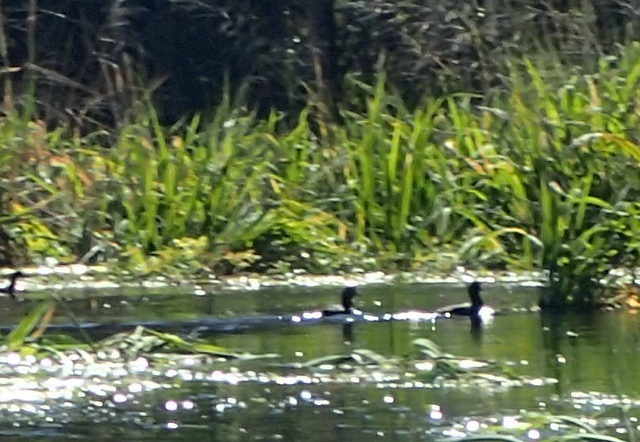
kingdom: Animalia
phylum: Chordata
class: Aves
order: Gruiformes
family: Rallidae
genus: Fulica
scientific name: Fulica americana
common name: American coot
